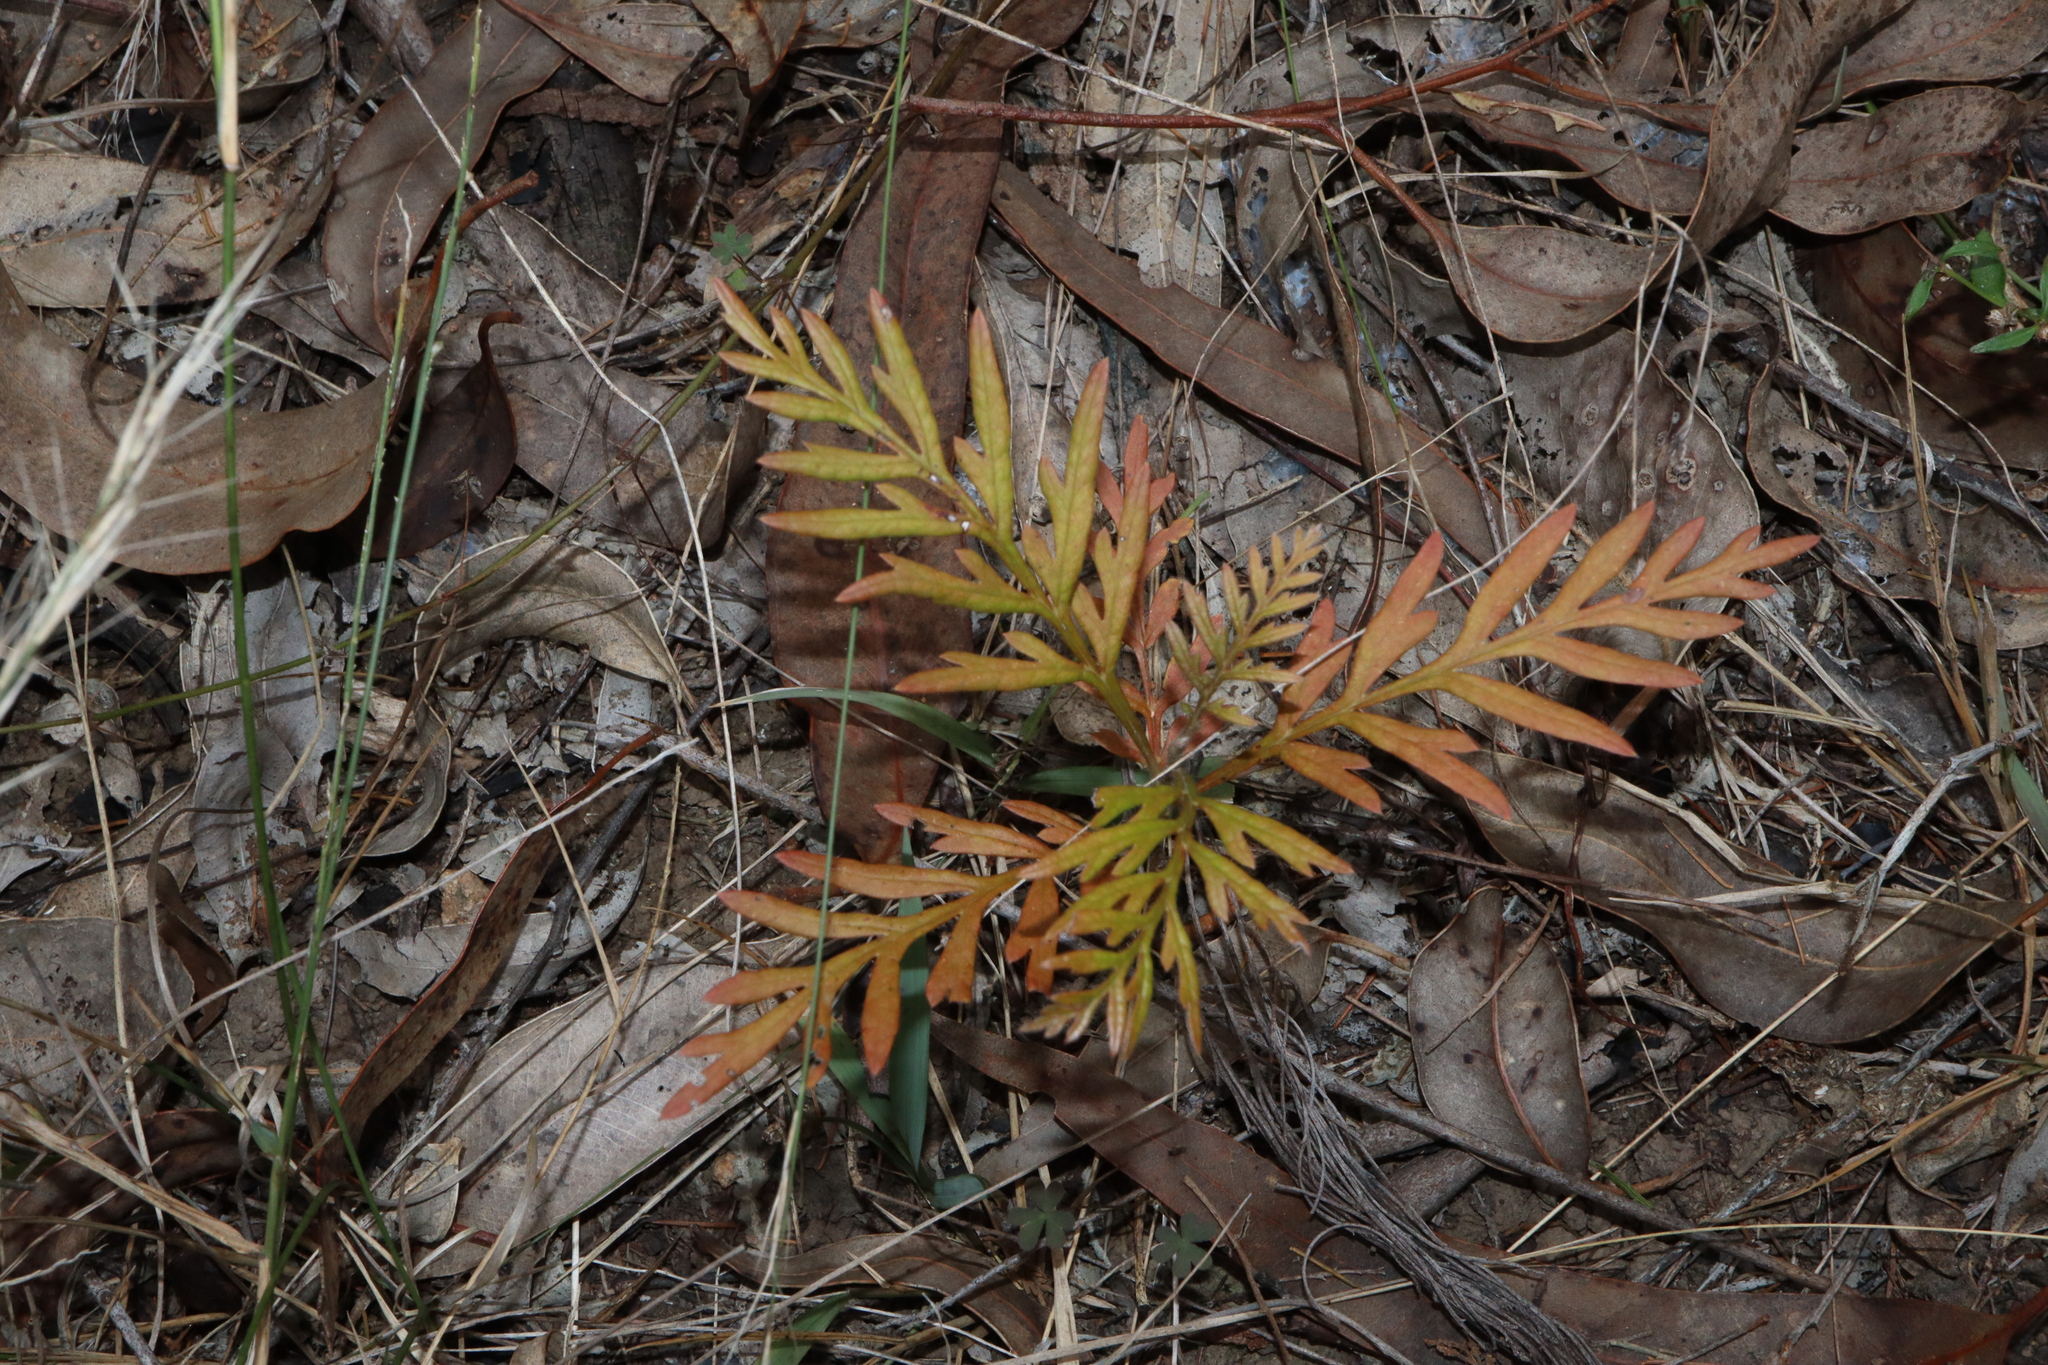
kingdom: Plantae
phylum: Tracheophyta
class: Magnoliopsida
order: Proteales
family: Proteaceae
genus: Grevillea
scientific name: Grevillea robusta
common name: Silkoak
